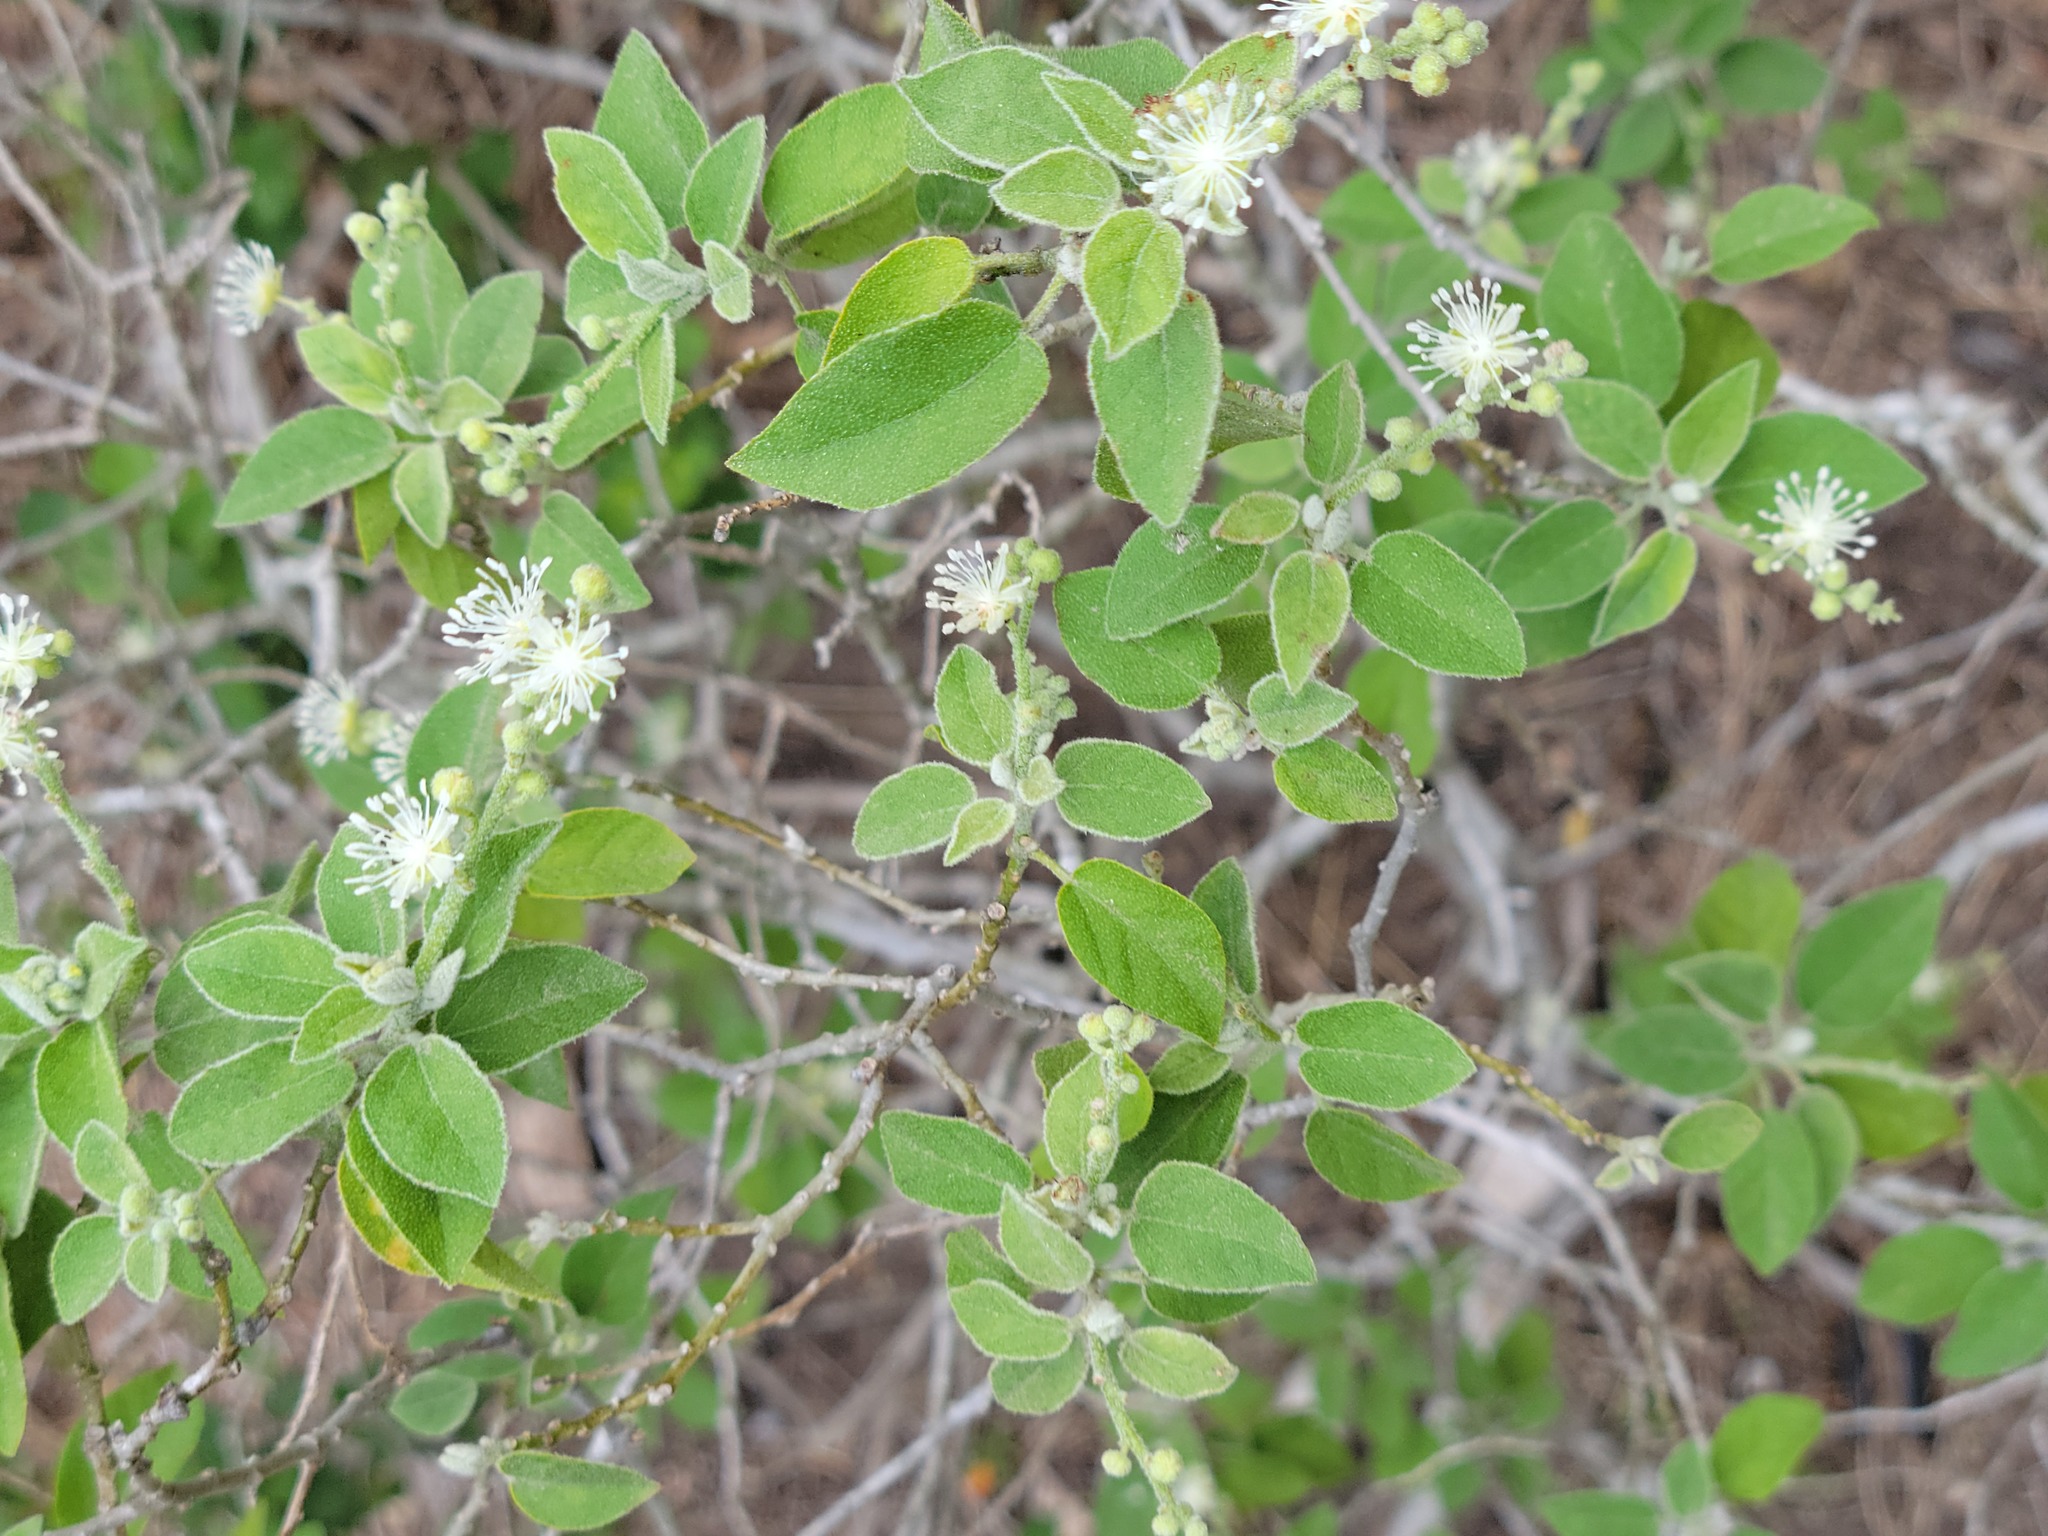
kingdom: Plantae
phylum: Tracheophyta
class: Magnoliopsida
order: Malpighiales
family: Euphorbiaceae
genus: Croton
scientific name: Croton humilis
